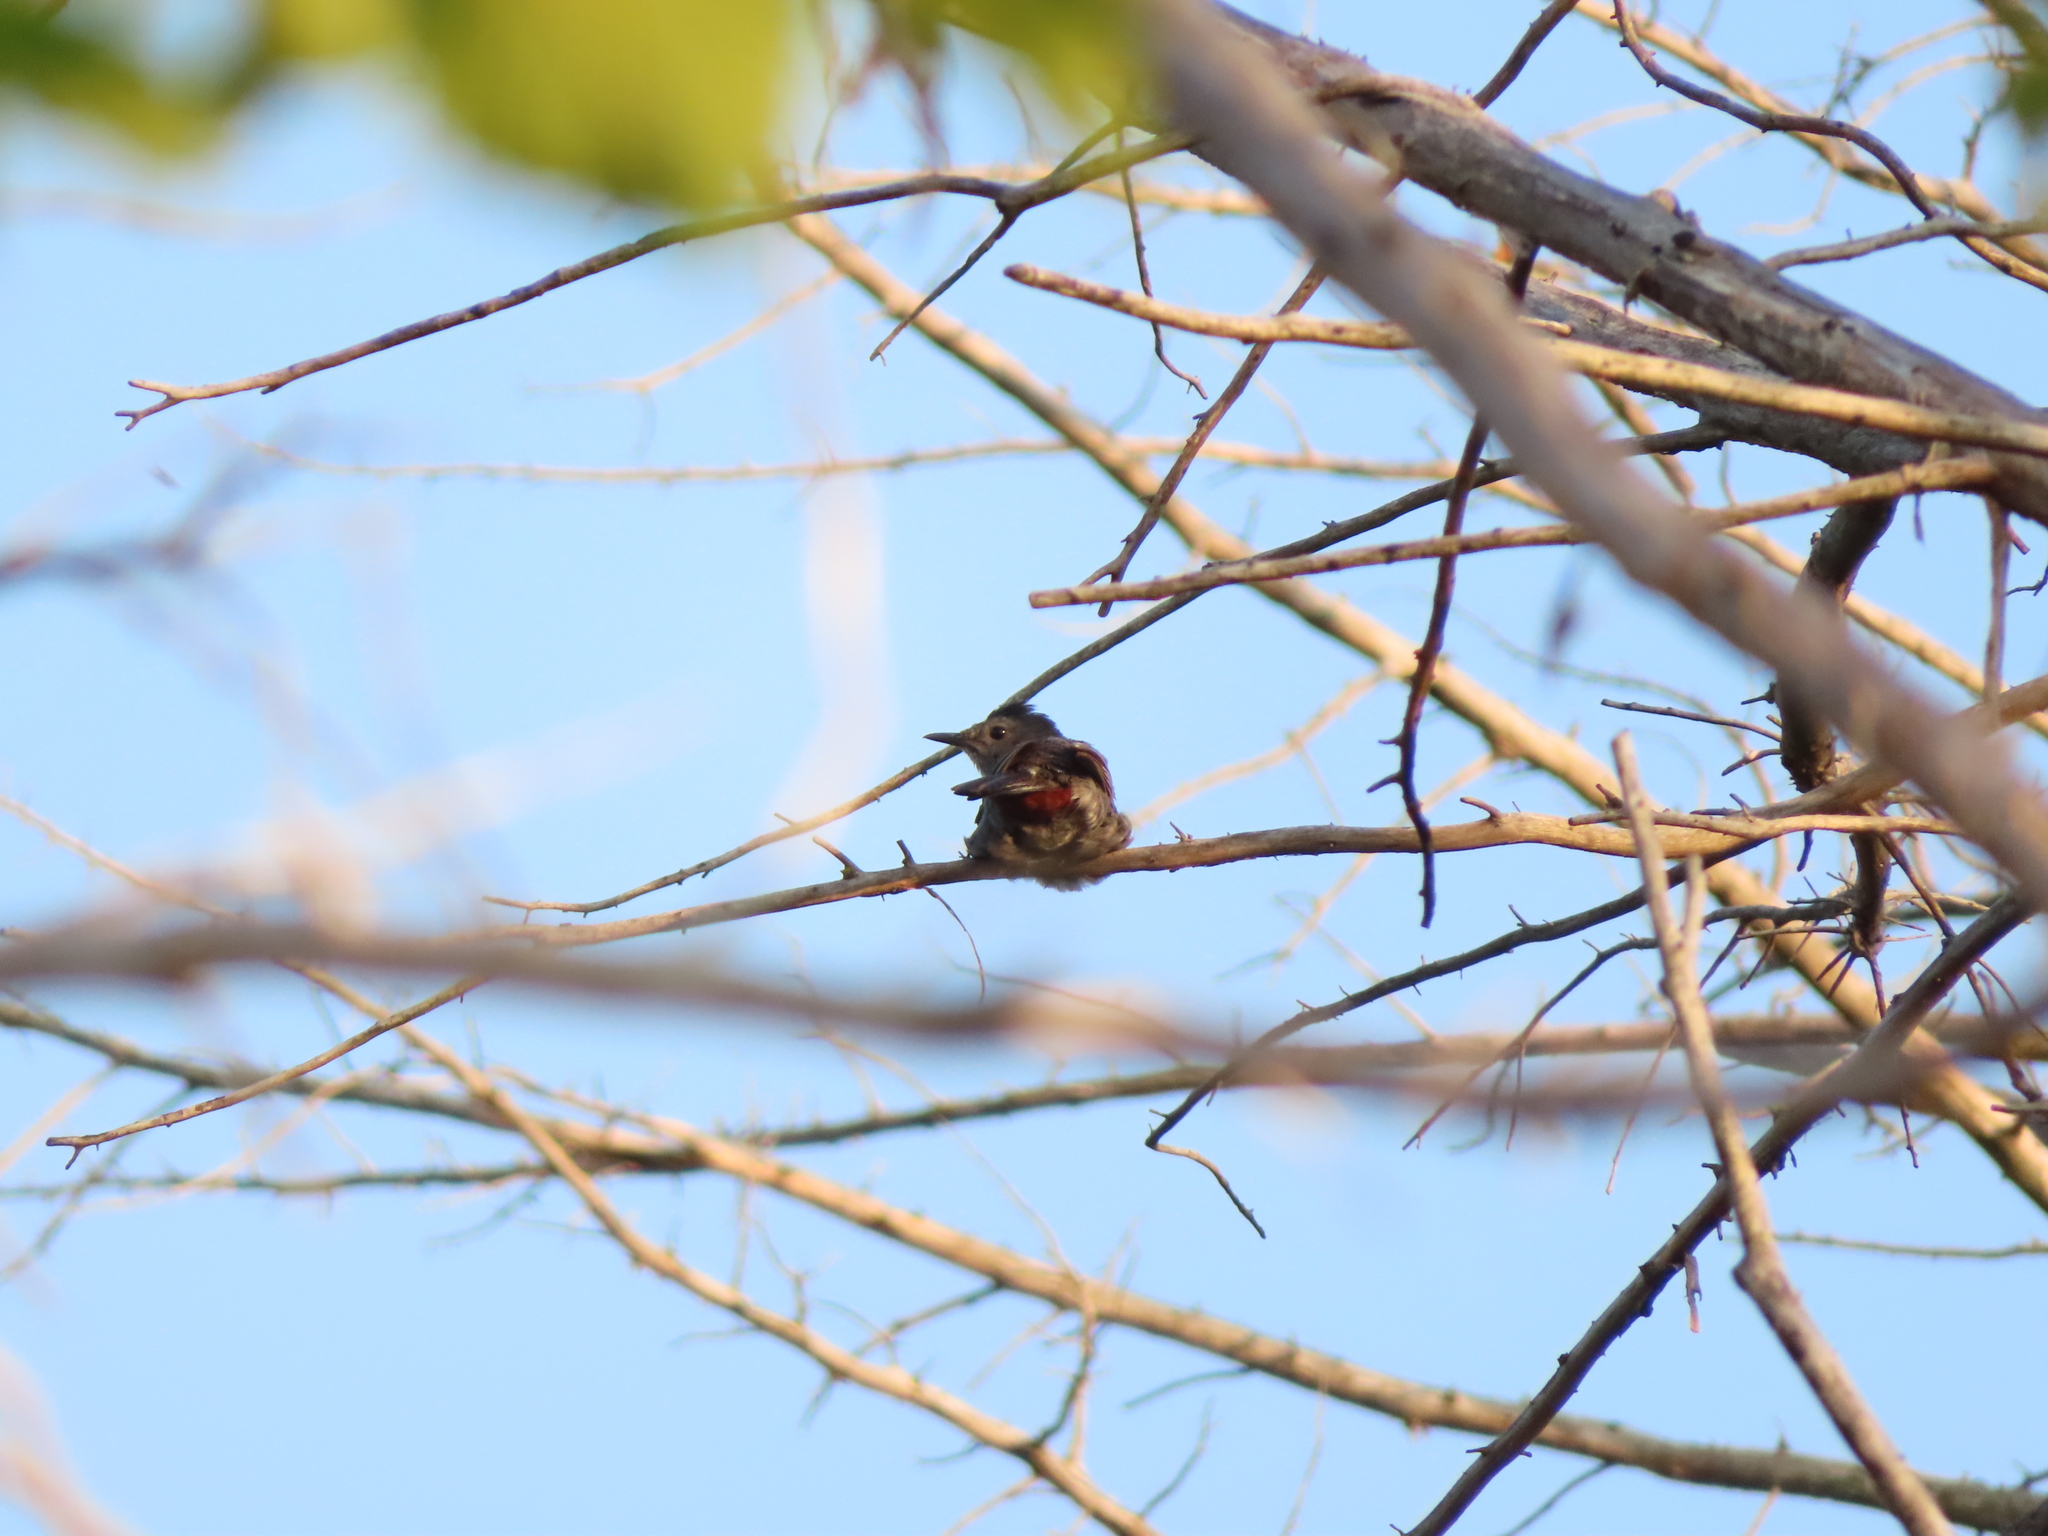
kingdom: Animalia
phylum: Chordata
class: Aves
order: Passeriformes
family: Mimidae
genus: Dumetella
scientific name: Dumetella carolinensis
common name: Gray catbird
